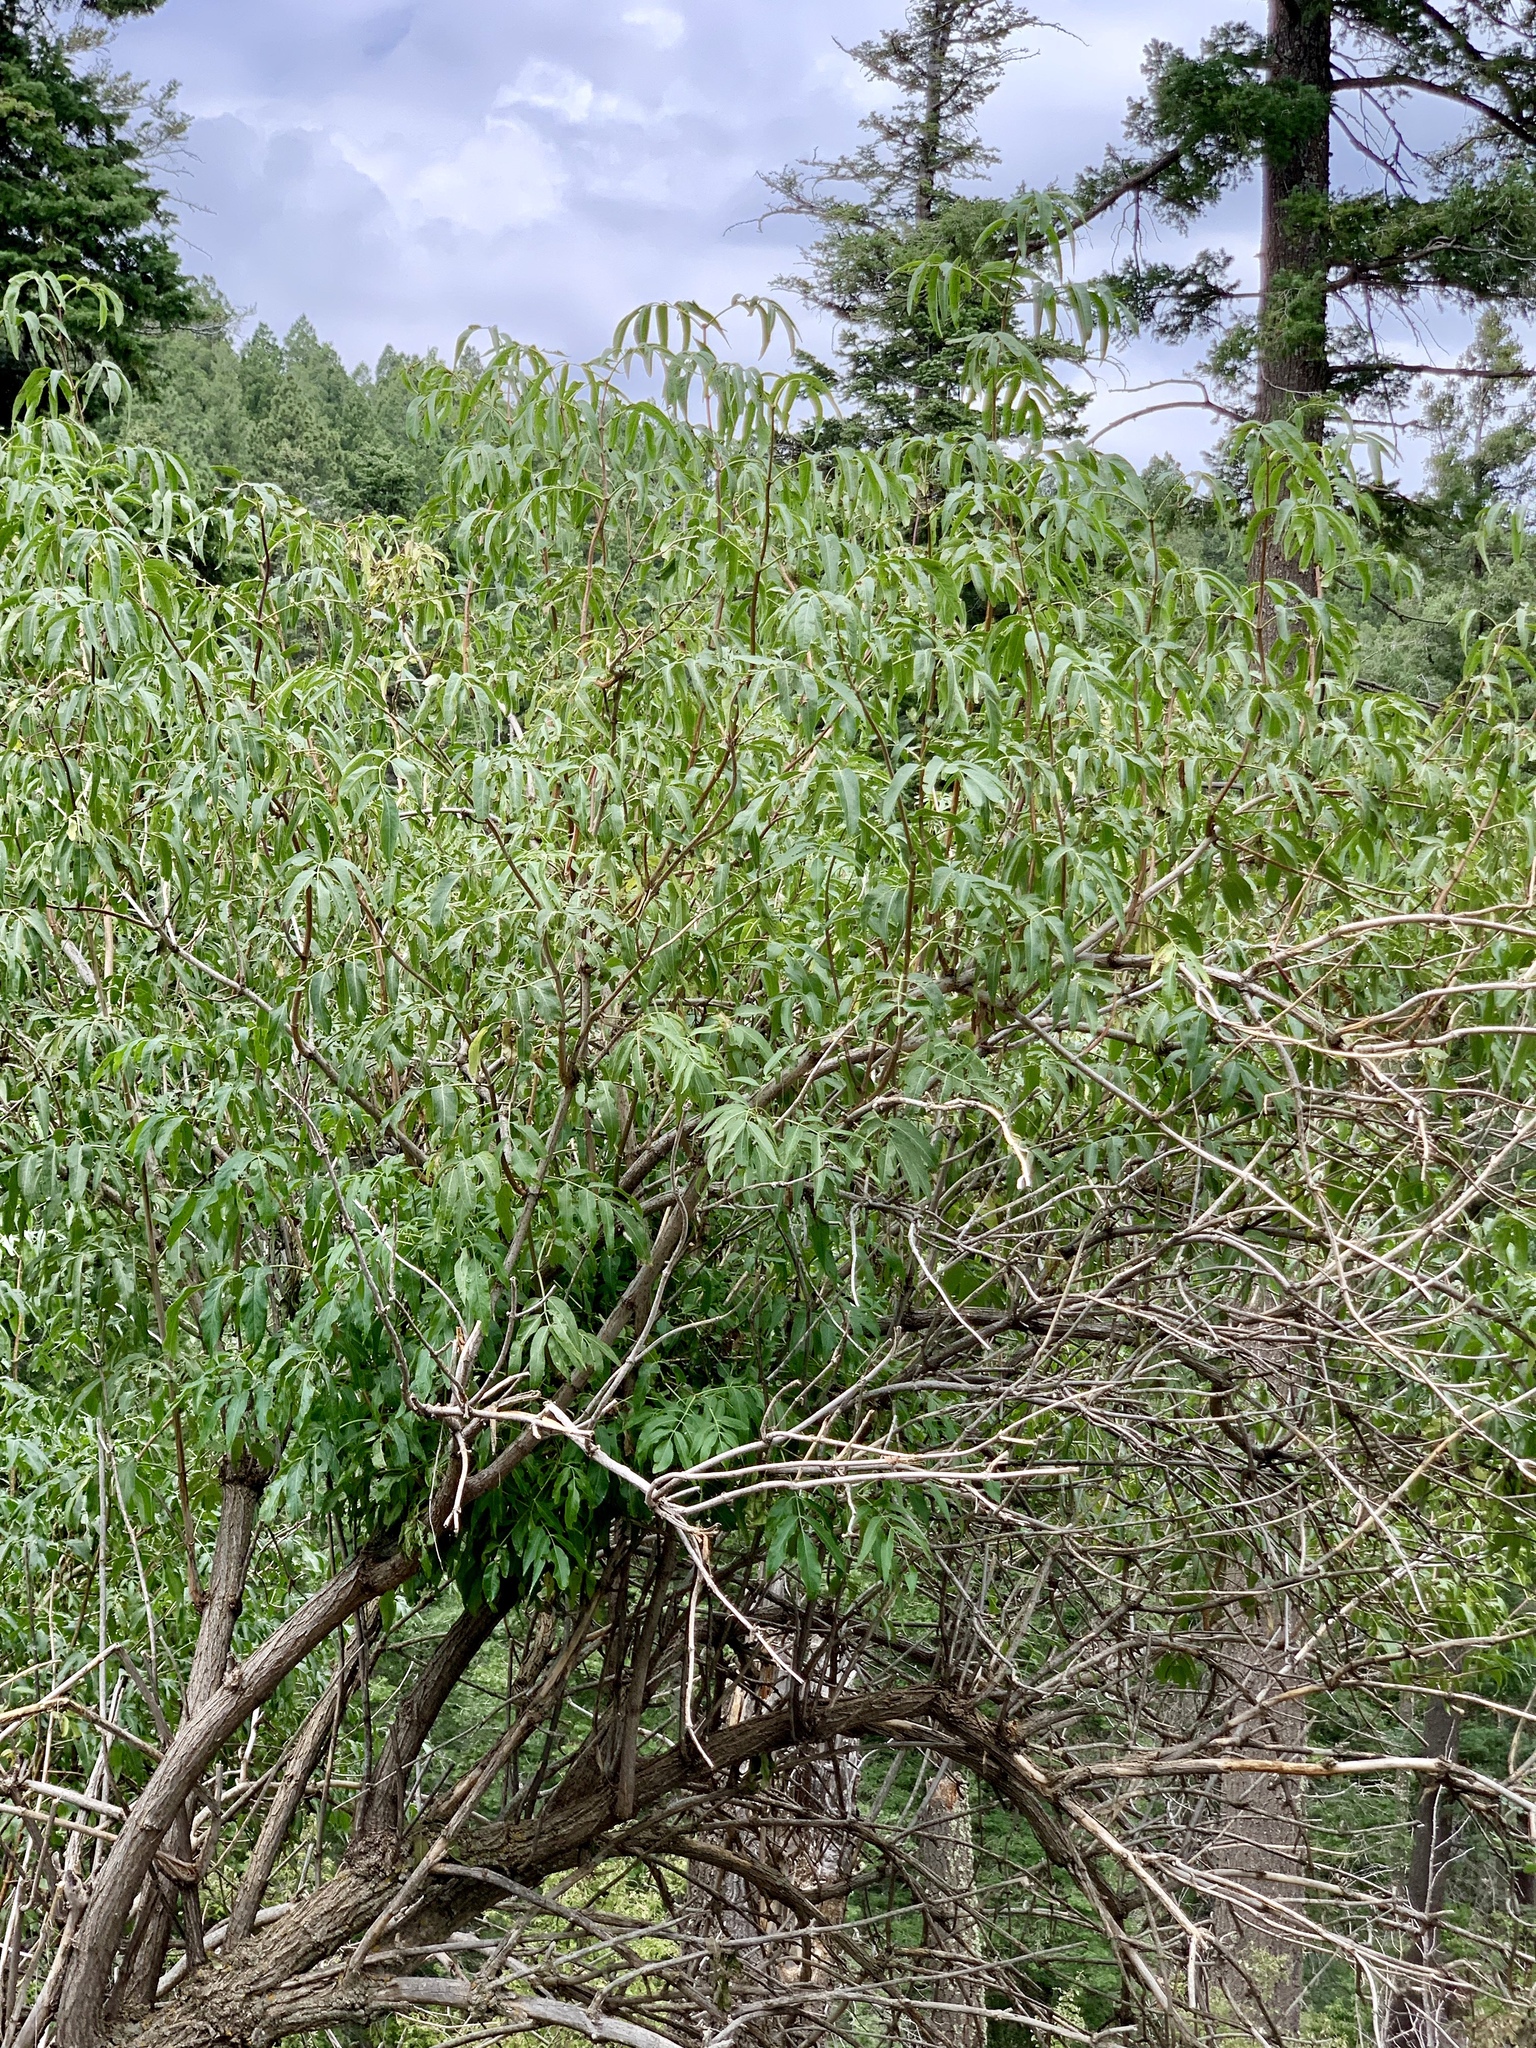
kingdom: Plantae
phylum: Tracheophyta
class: Magnoliopsida
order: Dipsacales
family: Viburnaceae
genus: Sambucus
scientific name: Sambucus cerulea
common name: Blue elder
